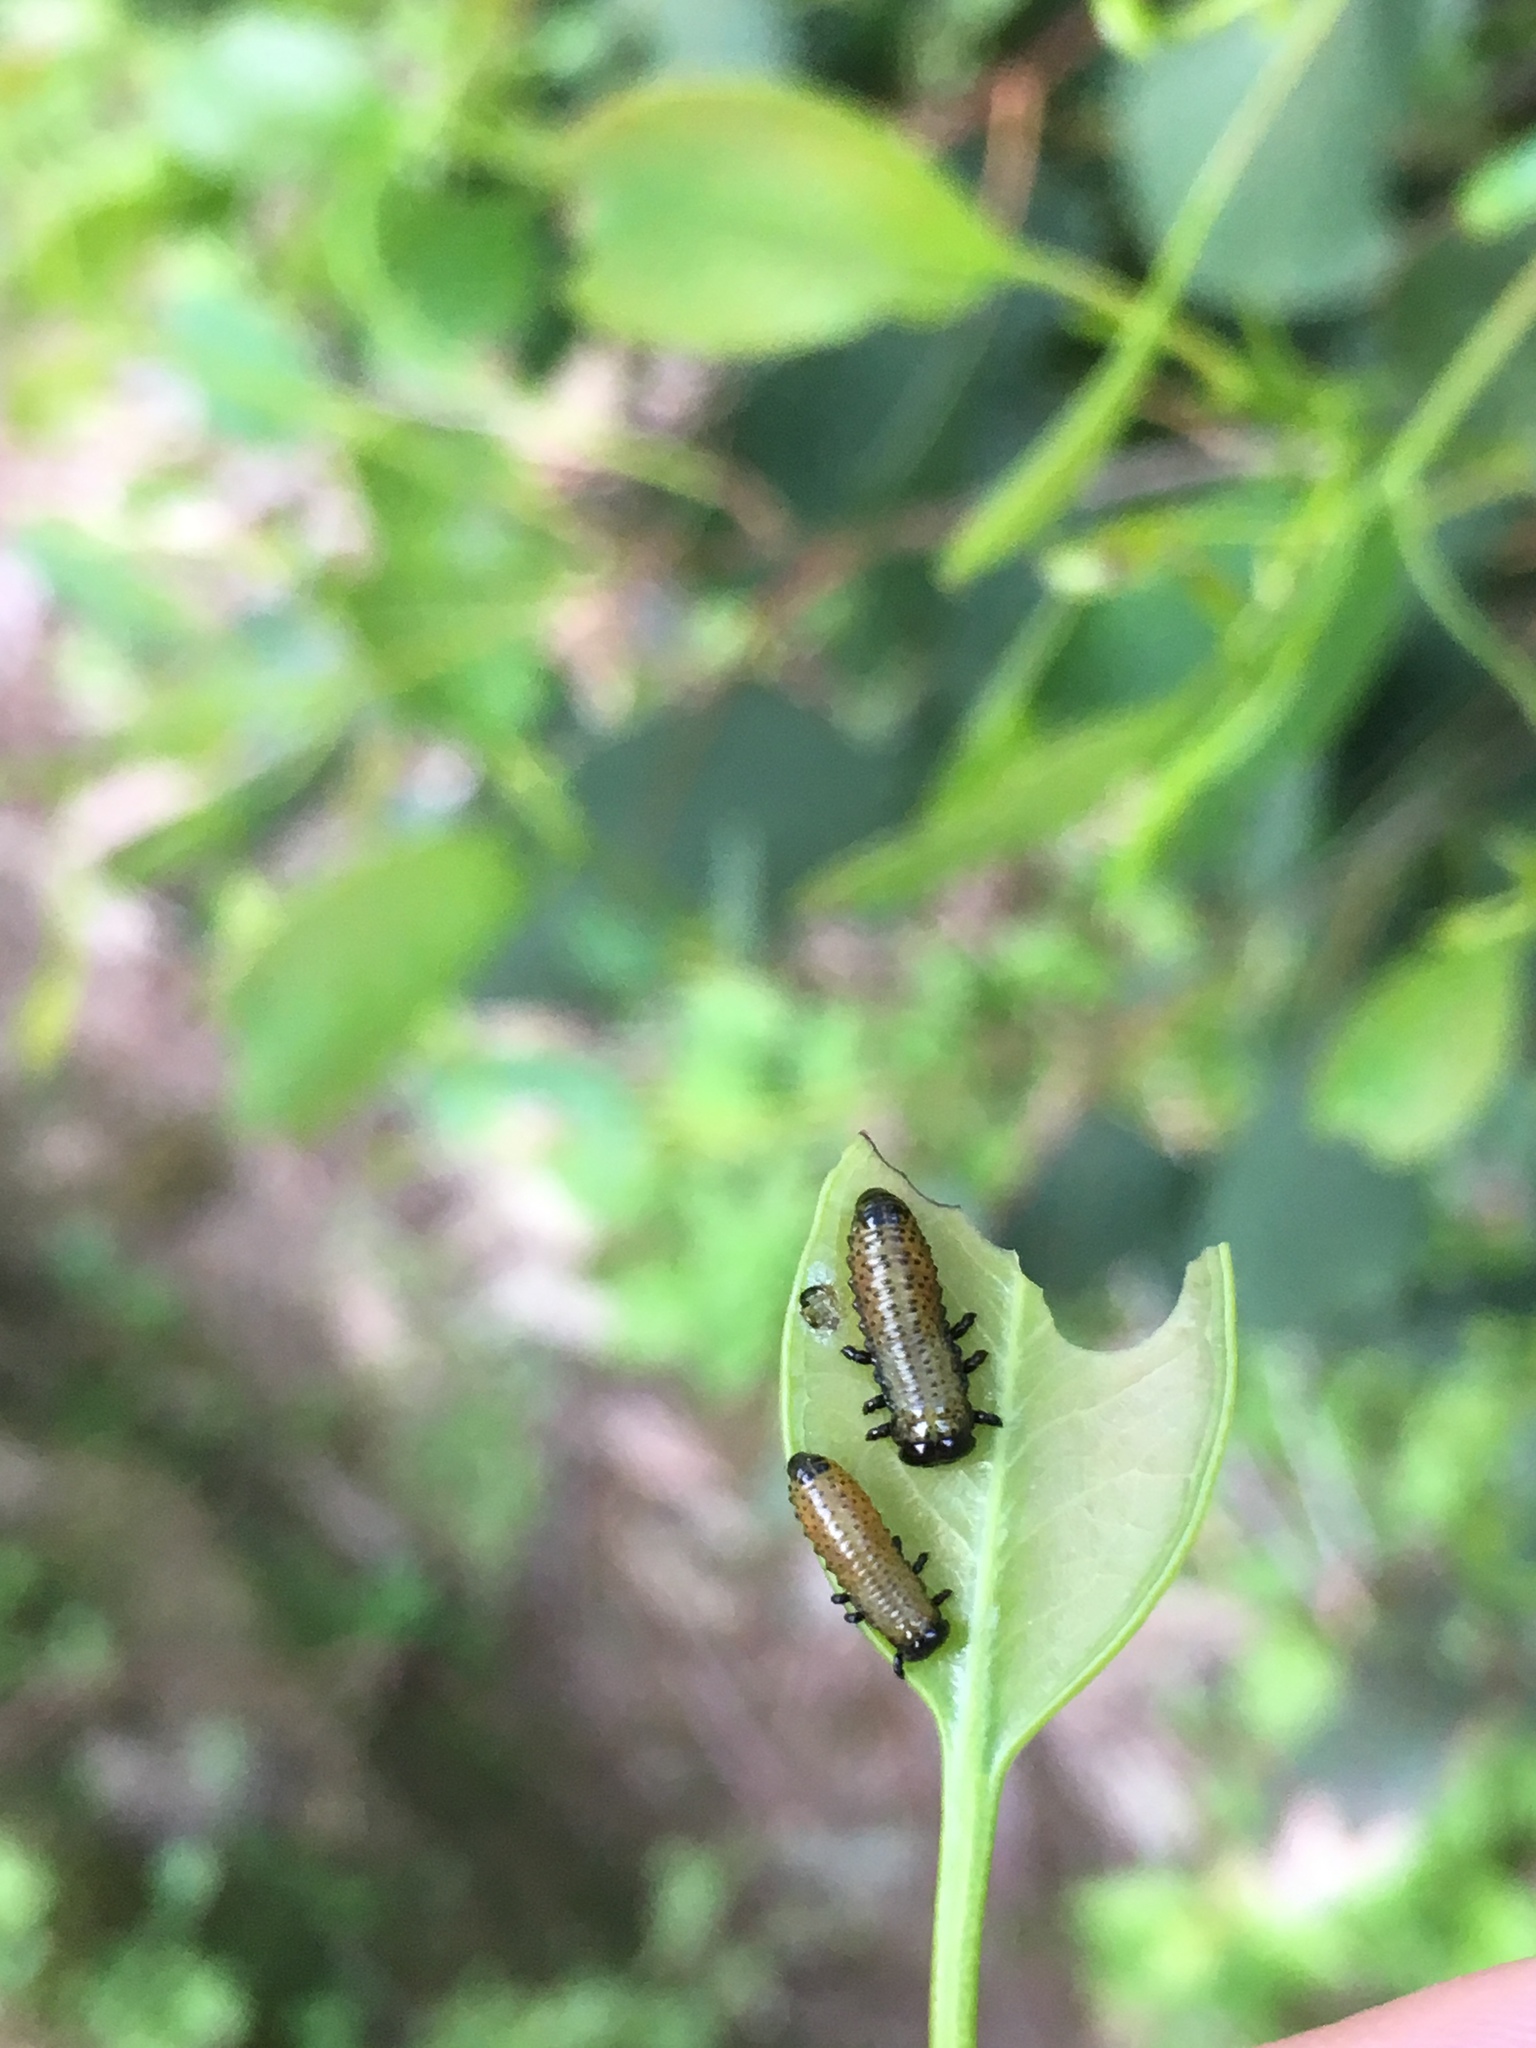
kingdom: Animalia
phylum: Arthropoda
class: Insecta
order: Coleoptera
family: Chrysomelidae
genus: Paropsis
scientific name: Paropsis charybdis
